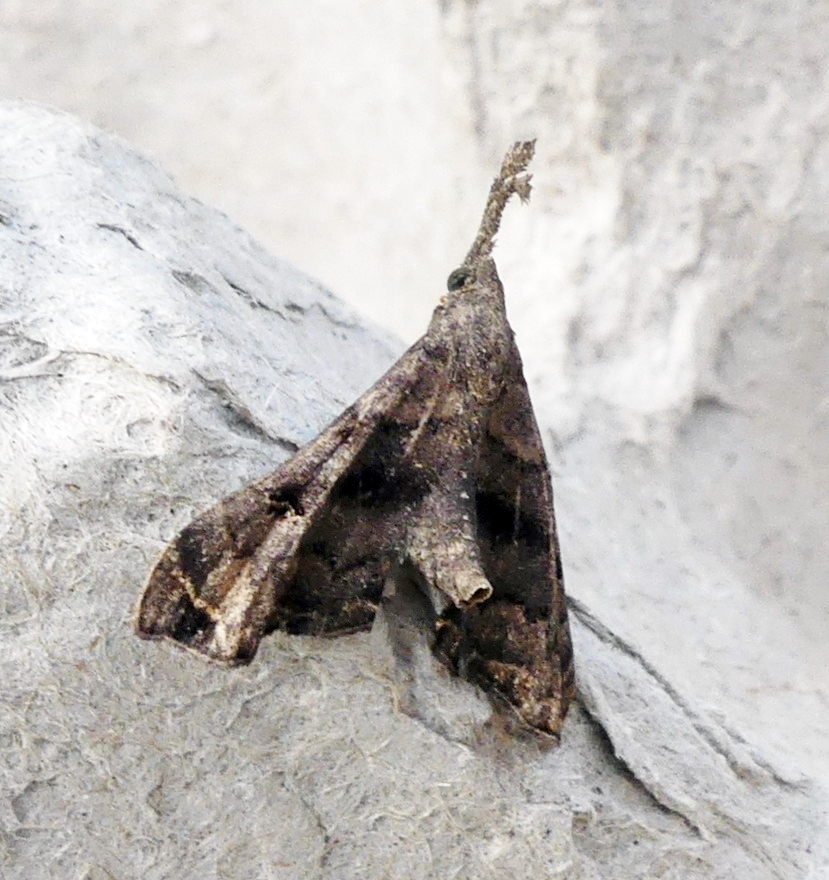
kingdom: Animalia
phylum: Arthropoda
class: Insecta
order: Lepidoptera
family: Erebidae
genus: Palthis
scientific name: Palthis asopialis
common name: Faint-spotted palthis moth
